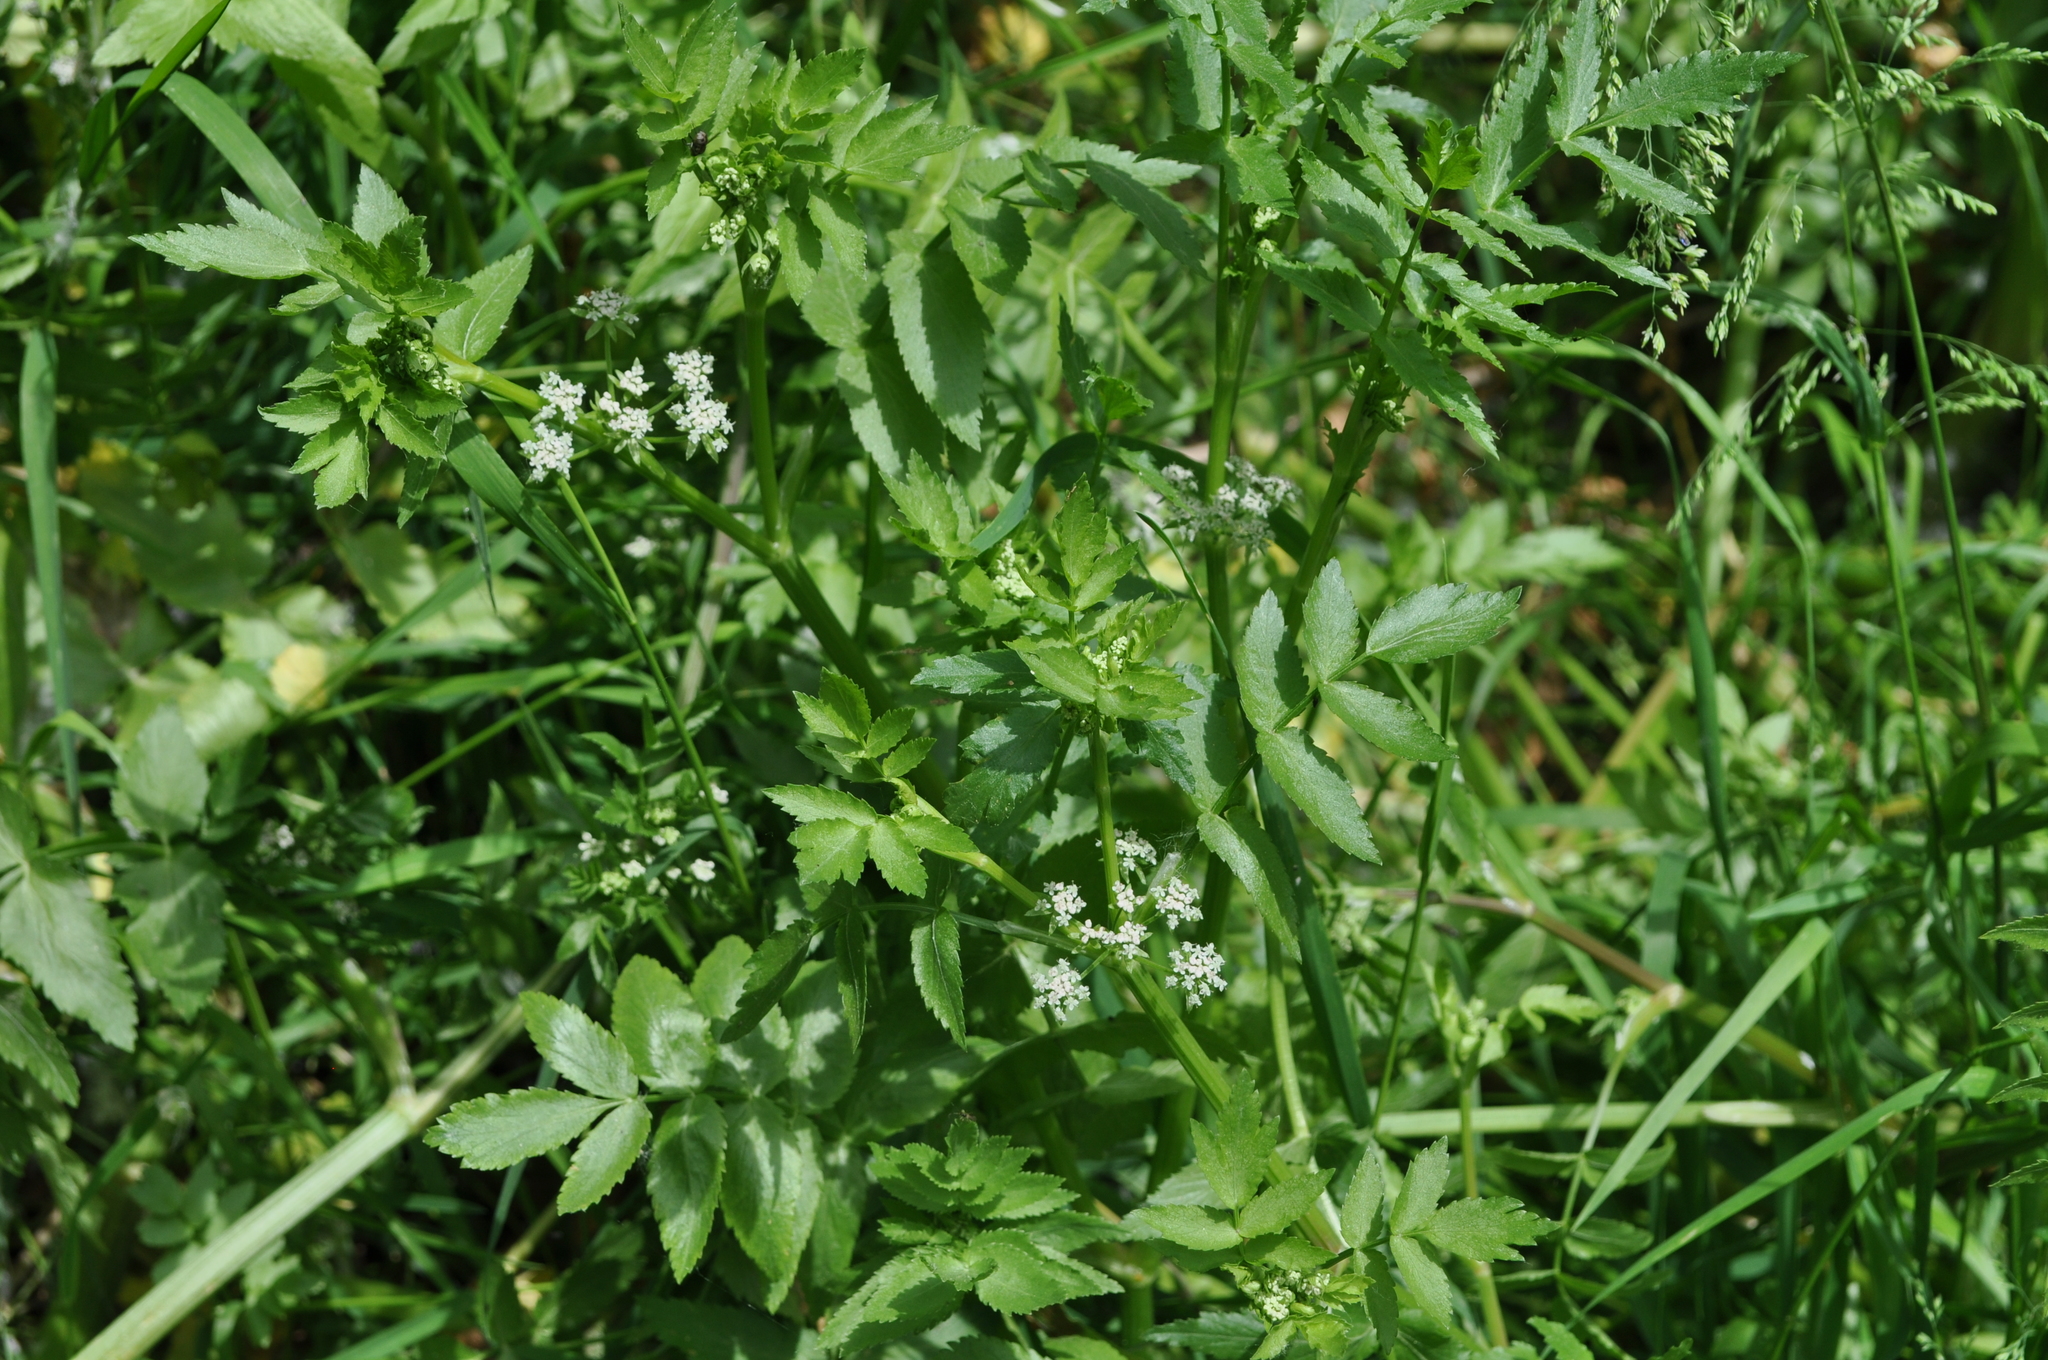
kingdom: Plantae
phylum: Tracheophyta
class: Magnoliopsida
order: Apiales
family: Apiaceae
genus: Helosciadium
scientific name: Helosciadium nodiflorum
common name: Fool's-watercress
